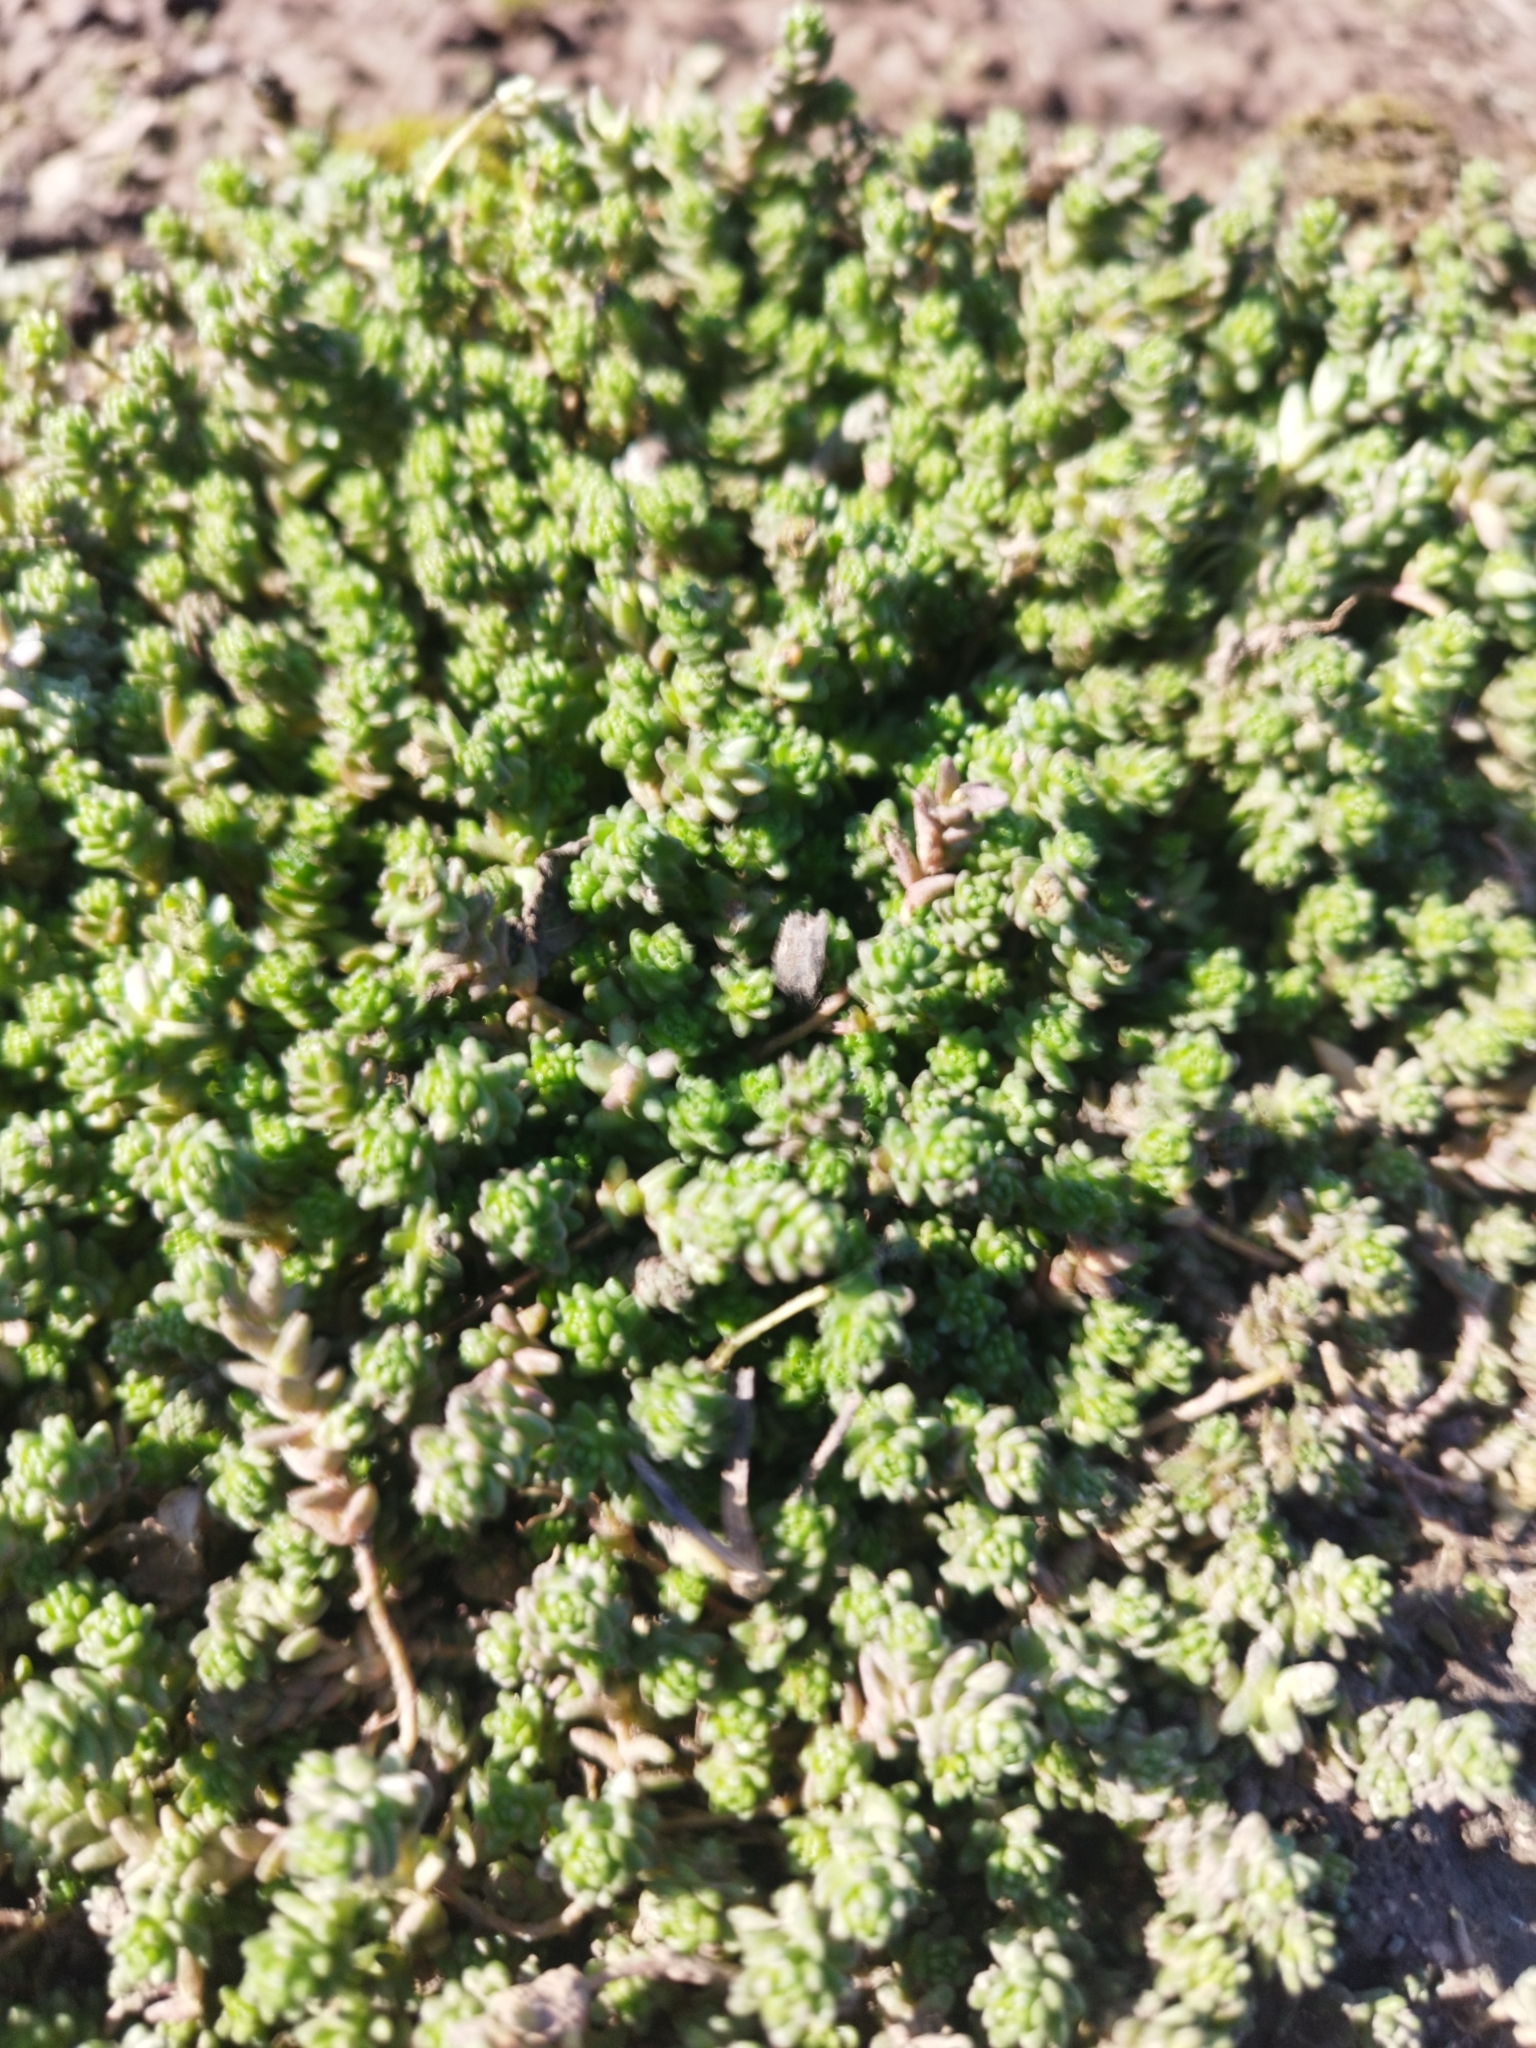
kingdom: Plantae
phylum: Tracheophyta
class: Magnoliopsida
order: Saxifragales
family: Crassulaceae
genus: Sedum
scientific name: Sedum acre
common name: Biting stonecrop
